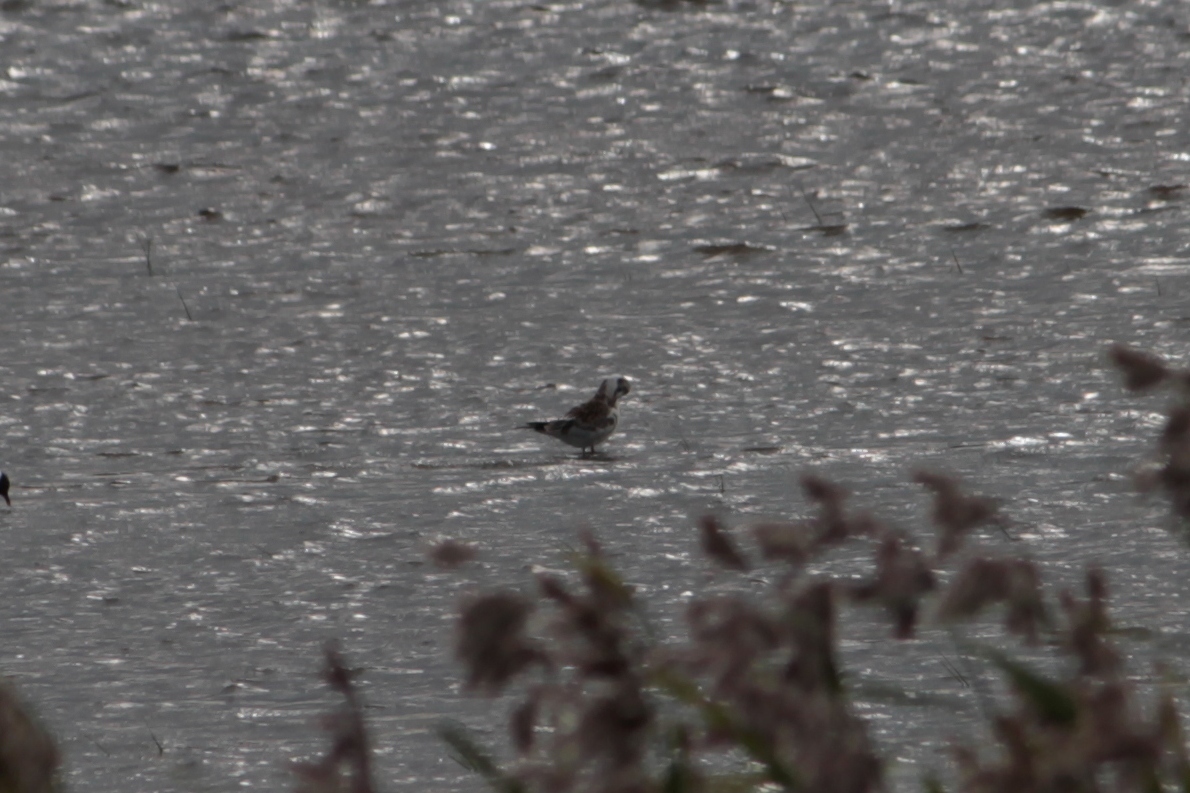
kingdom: Animalia
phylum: Chordata
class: Aves
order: Charadriiformes
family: Laridae
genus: Chroicocephalus
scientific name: Chroicocephalus ridibundus
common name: Black-headed gull
